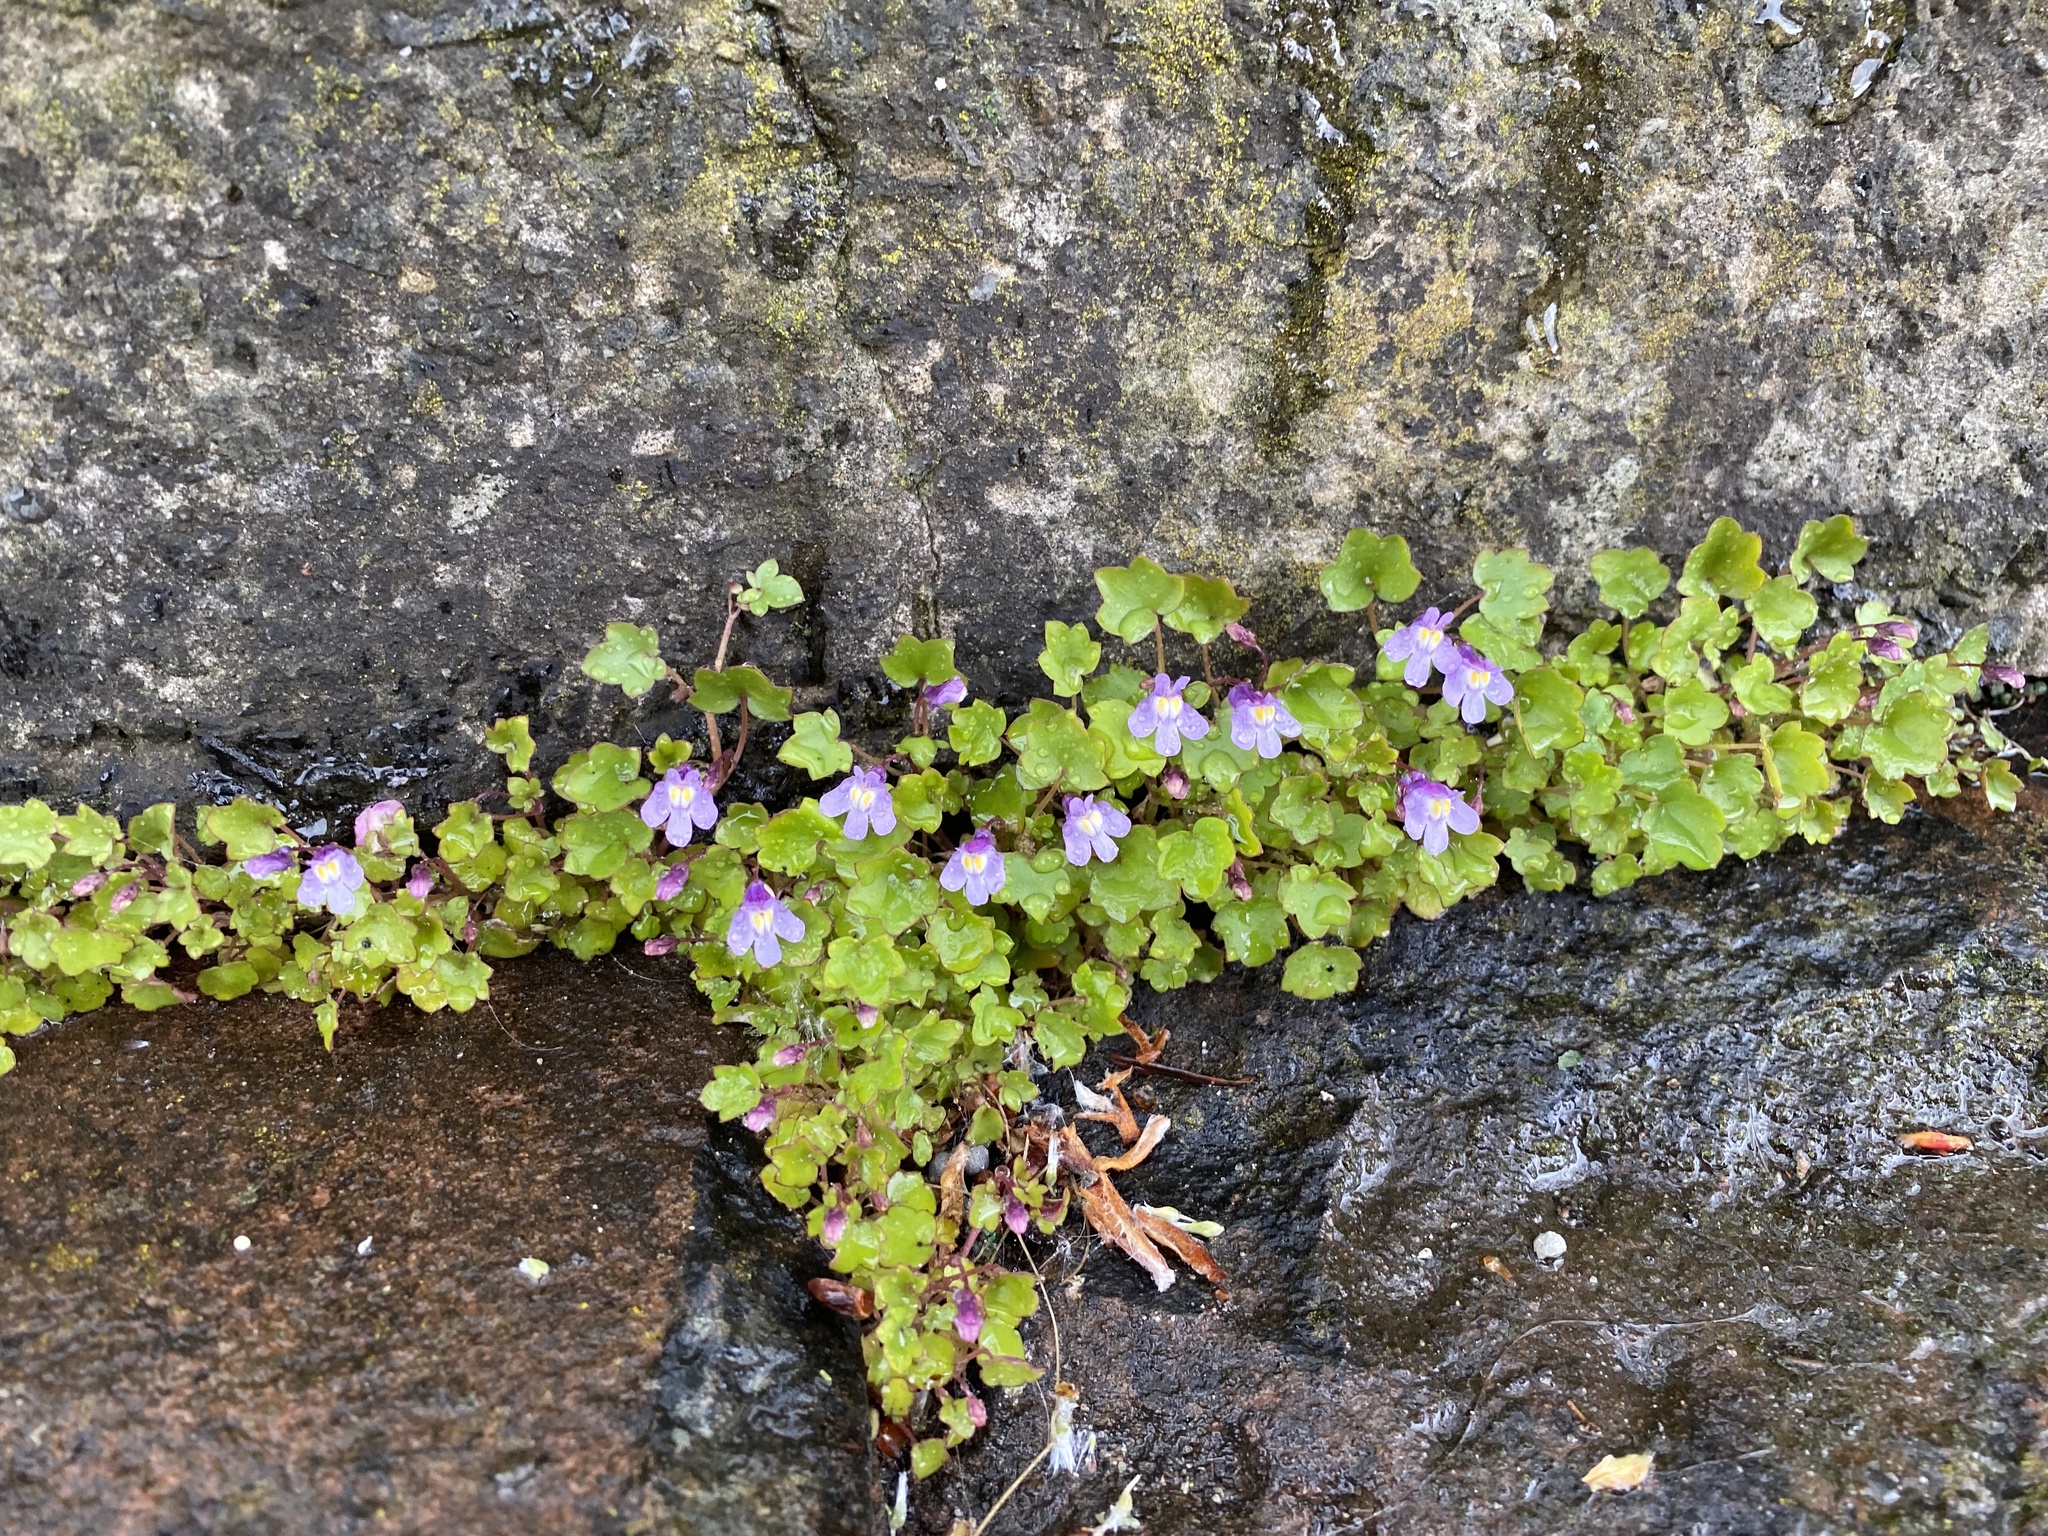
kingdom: Plantae
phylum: Tracheophyta
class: Magnoliopsida
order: Lamiales
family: Plantaginaceae
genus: Cymbalaria
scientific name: Cymbalaria muralis
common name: Ivy-leaved toadflax
